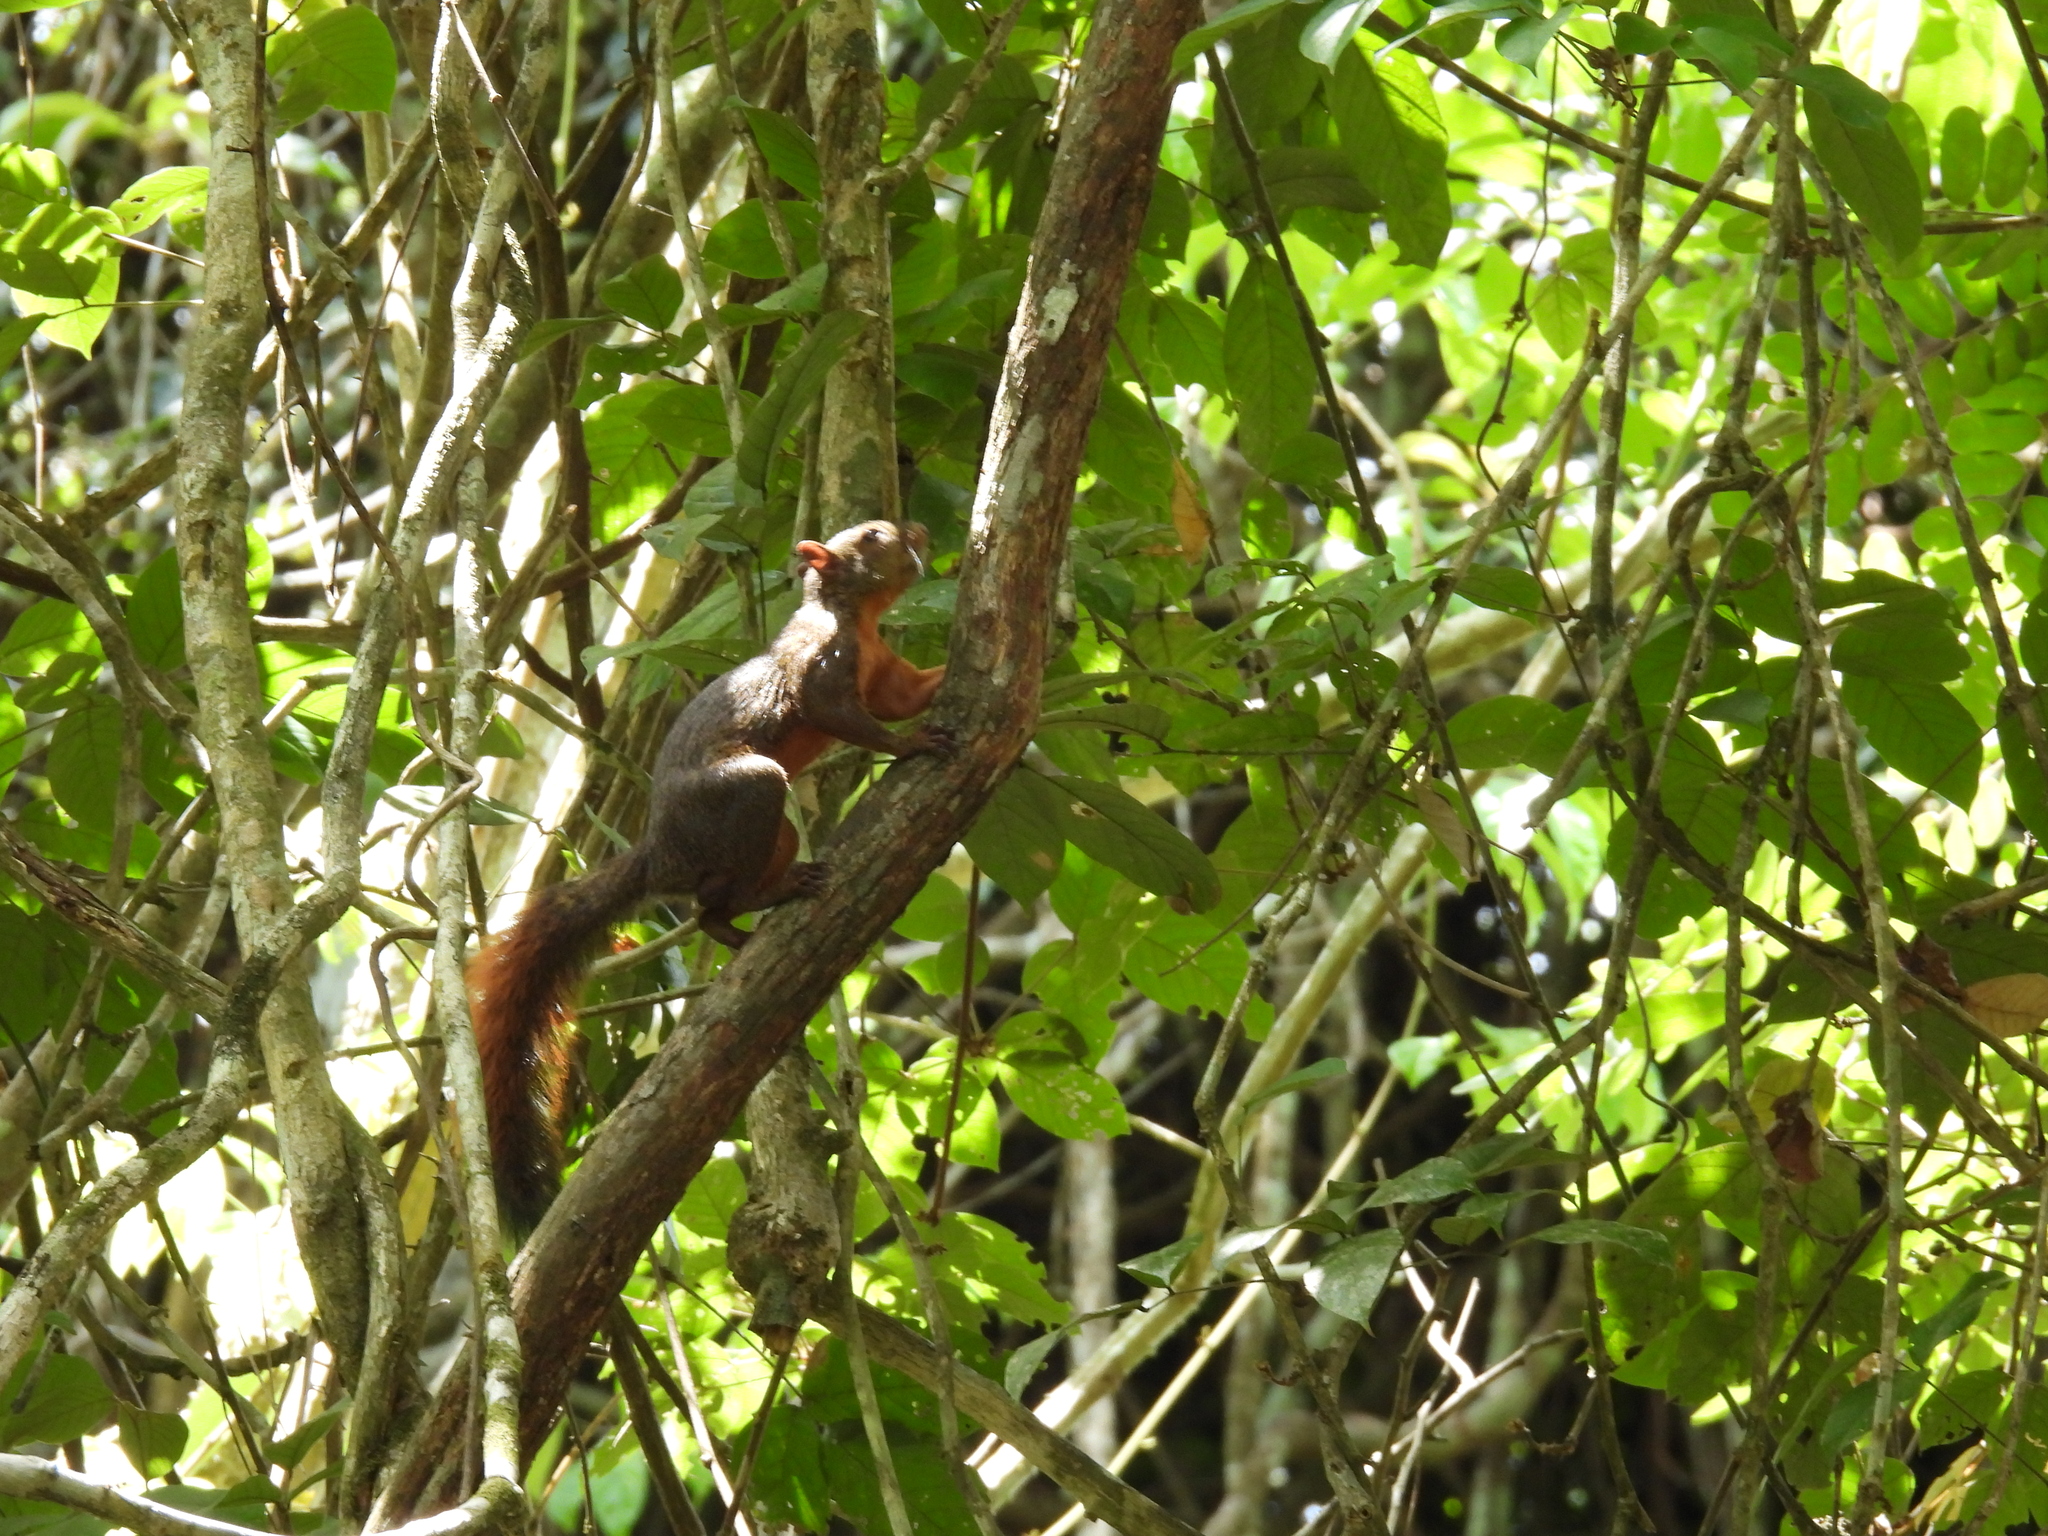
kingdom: Animalia
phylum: Chordata
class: Mammalia
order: Rodentia
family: Sciuridae
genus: Sciurus
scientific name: Sciurus granatensis
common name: Red-tailed squirrel
